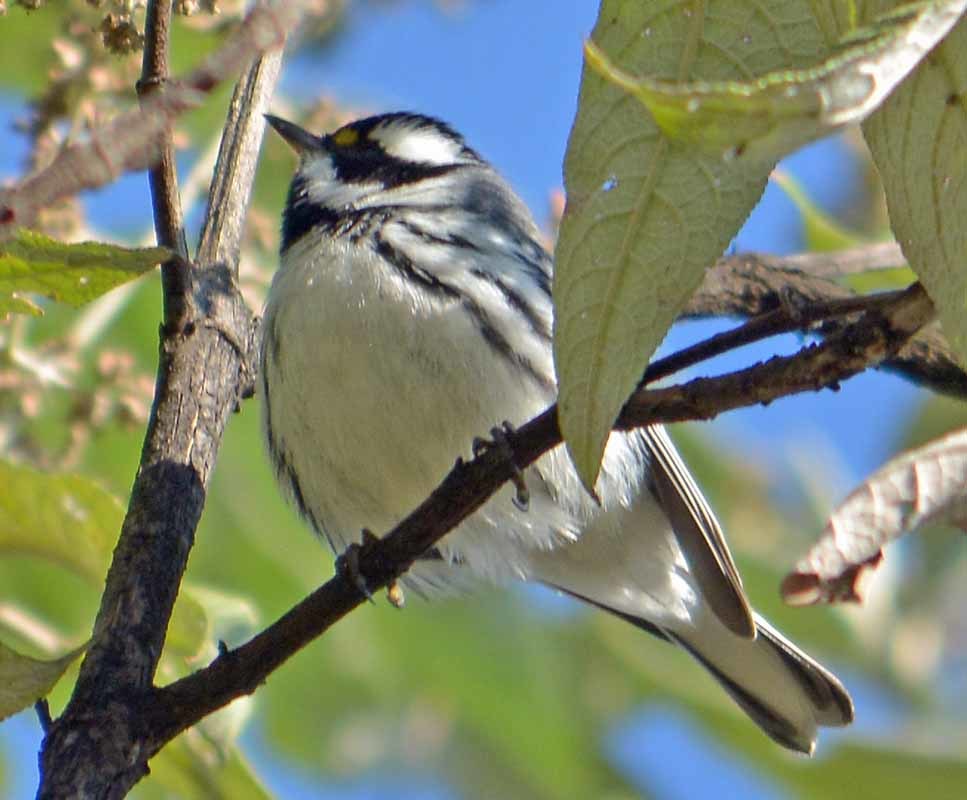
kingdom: Animalia
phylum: Chordata
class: Aves
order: Passeriformes
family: Parulidae
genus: Setophaga
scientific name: Setophaga nigrescens
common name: Black-throated gray warbler
